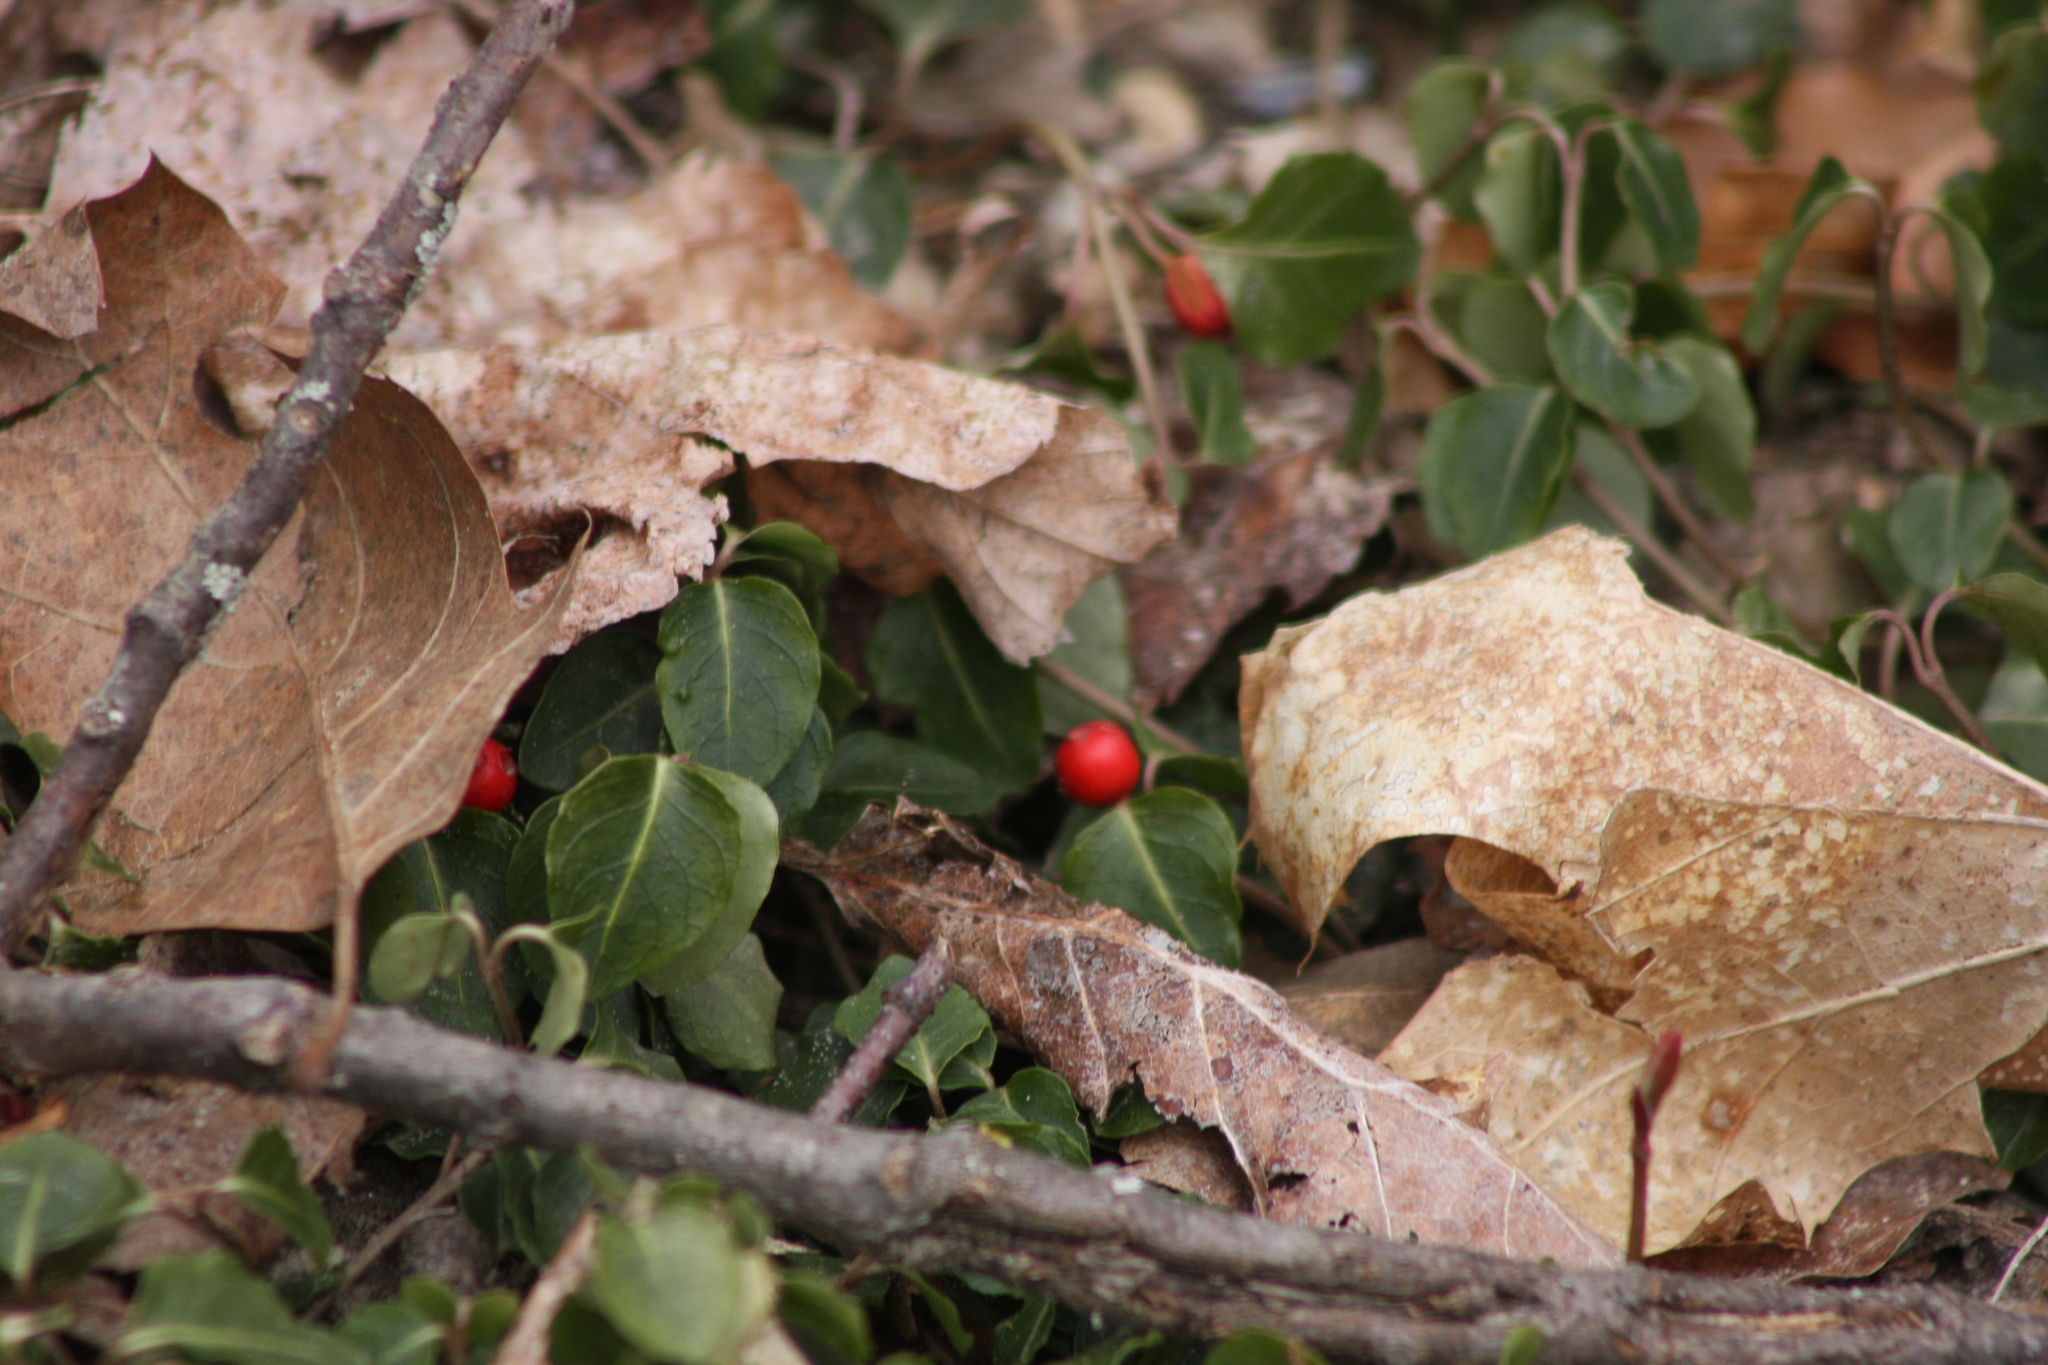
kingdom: Plantae
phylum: Tracheophyta
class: Magnoliopsida
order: Gentianales
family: Rubiaceae
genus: Mitchella
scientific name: Mitchella repens
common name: Partridge-berry
